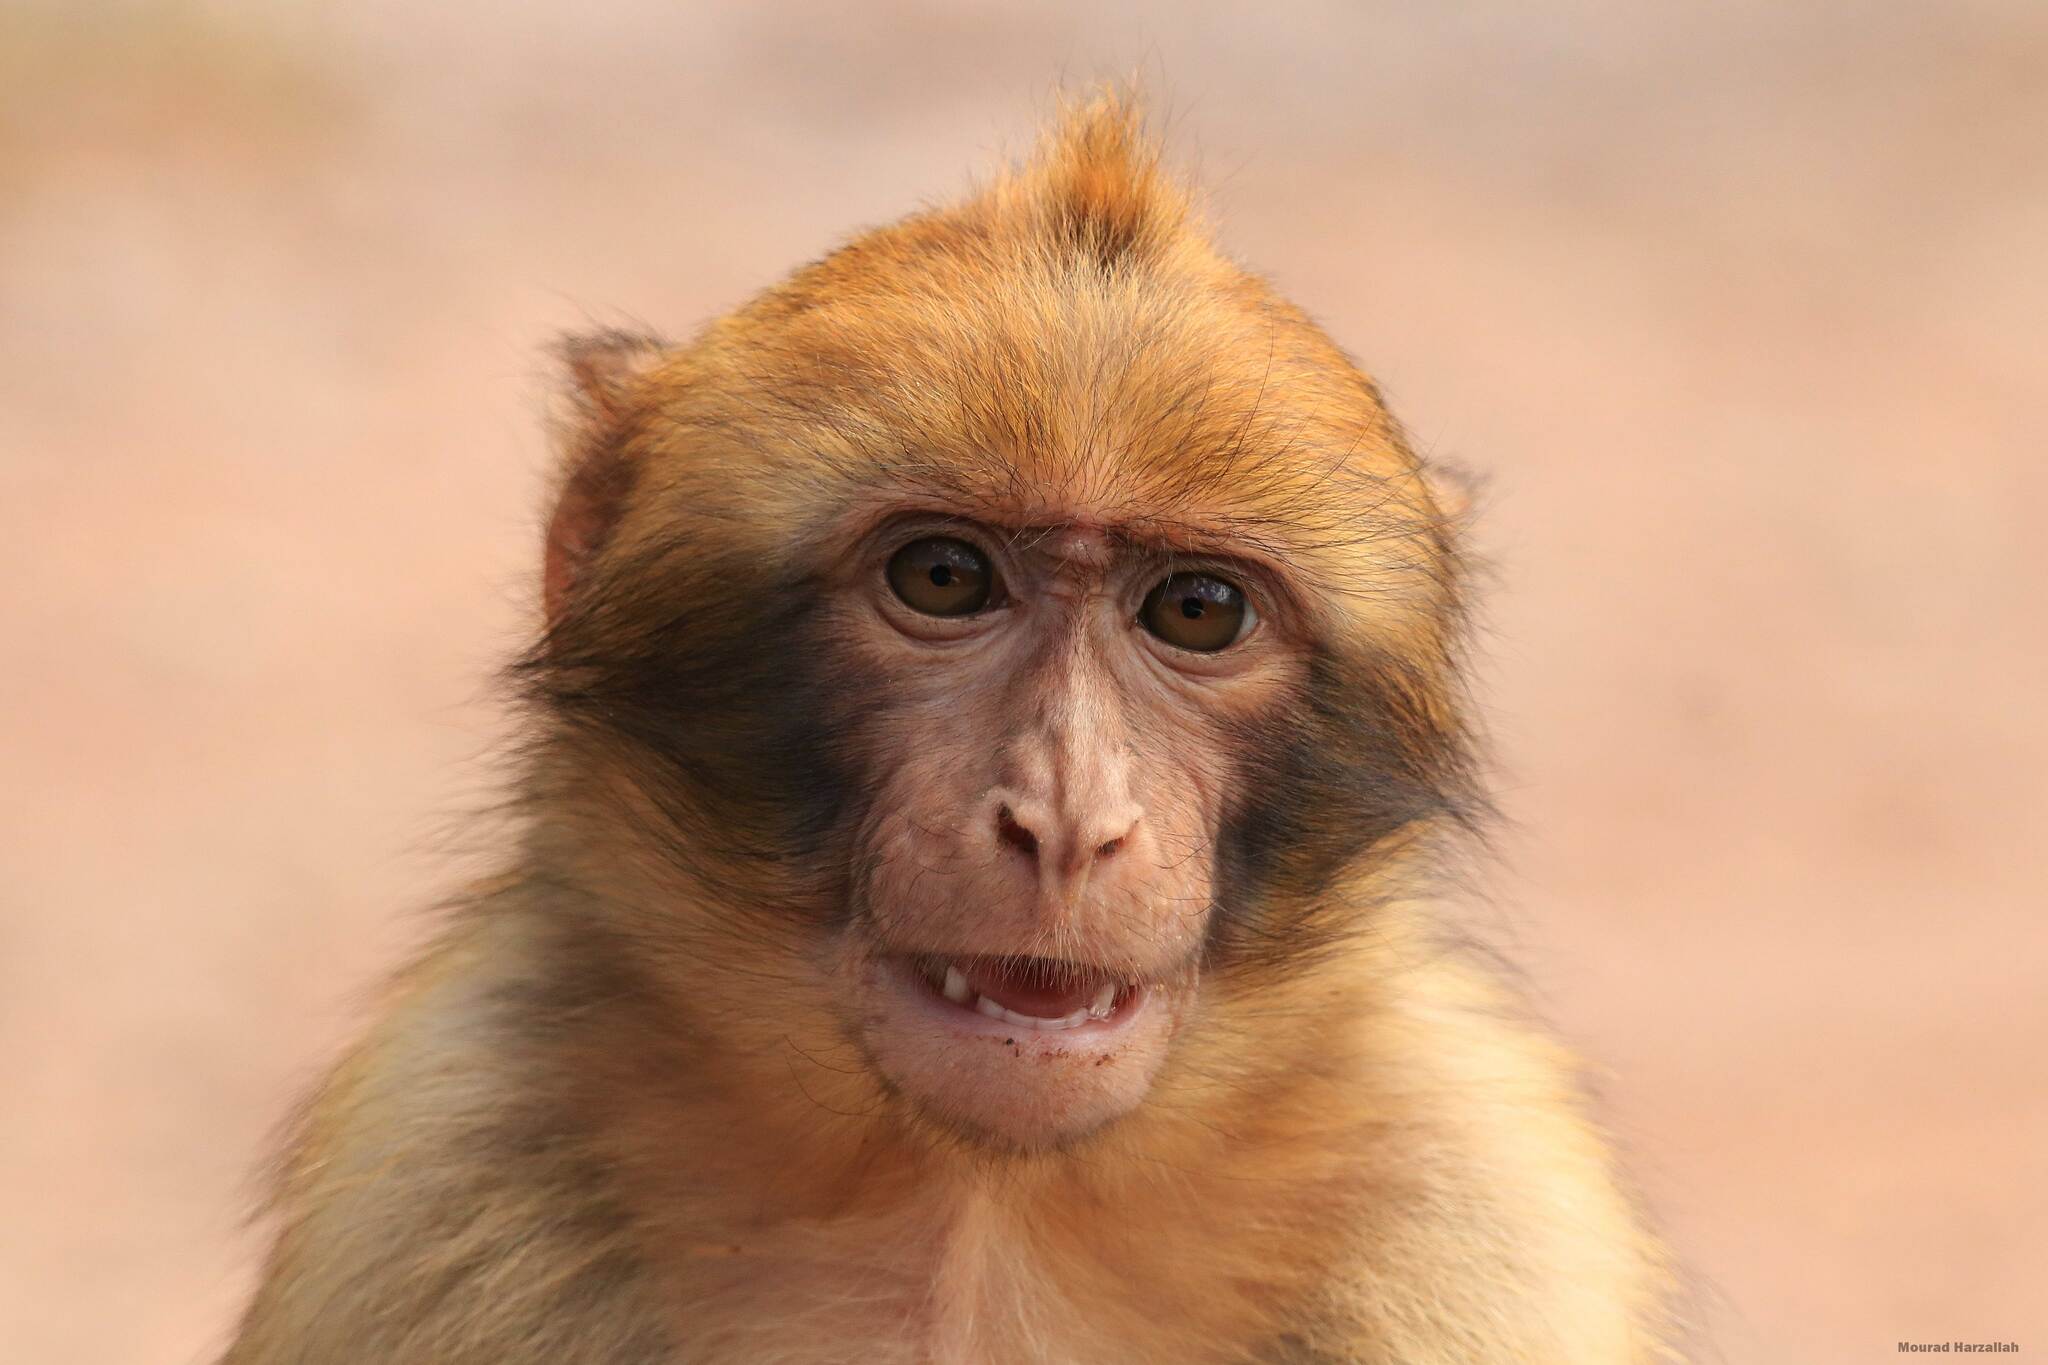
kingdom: Animalia
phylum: Chordata
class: Mammalia
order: Primates
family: Cercopithecidae
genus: Macaca
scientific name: Macaca sylvanus
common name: Barbary macaque
